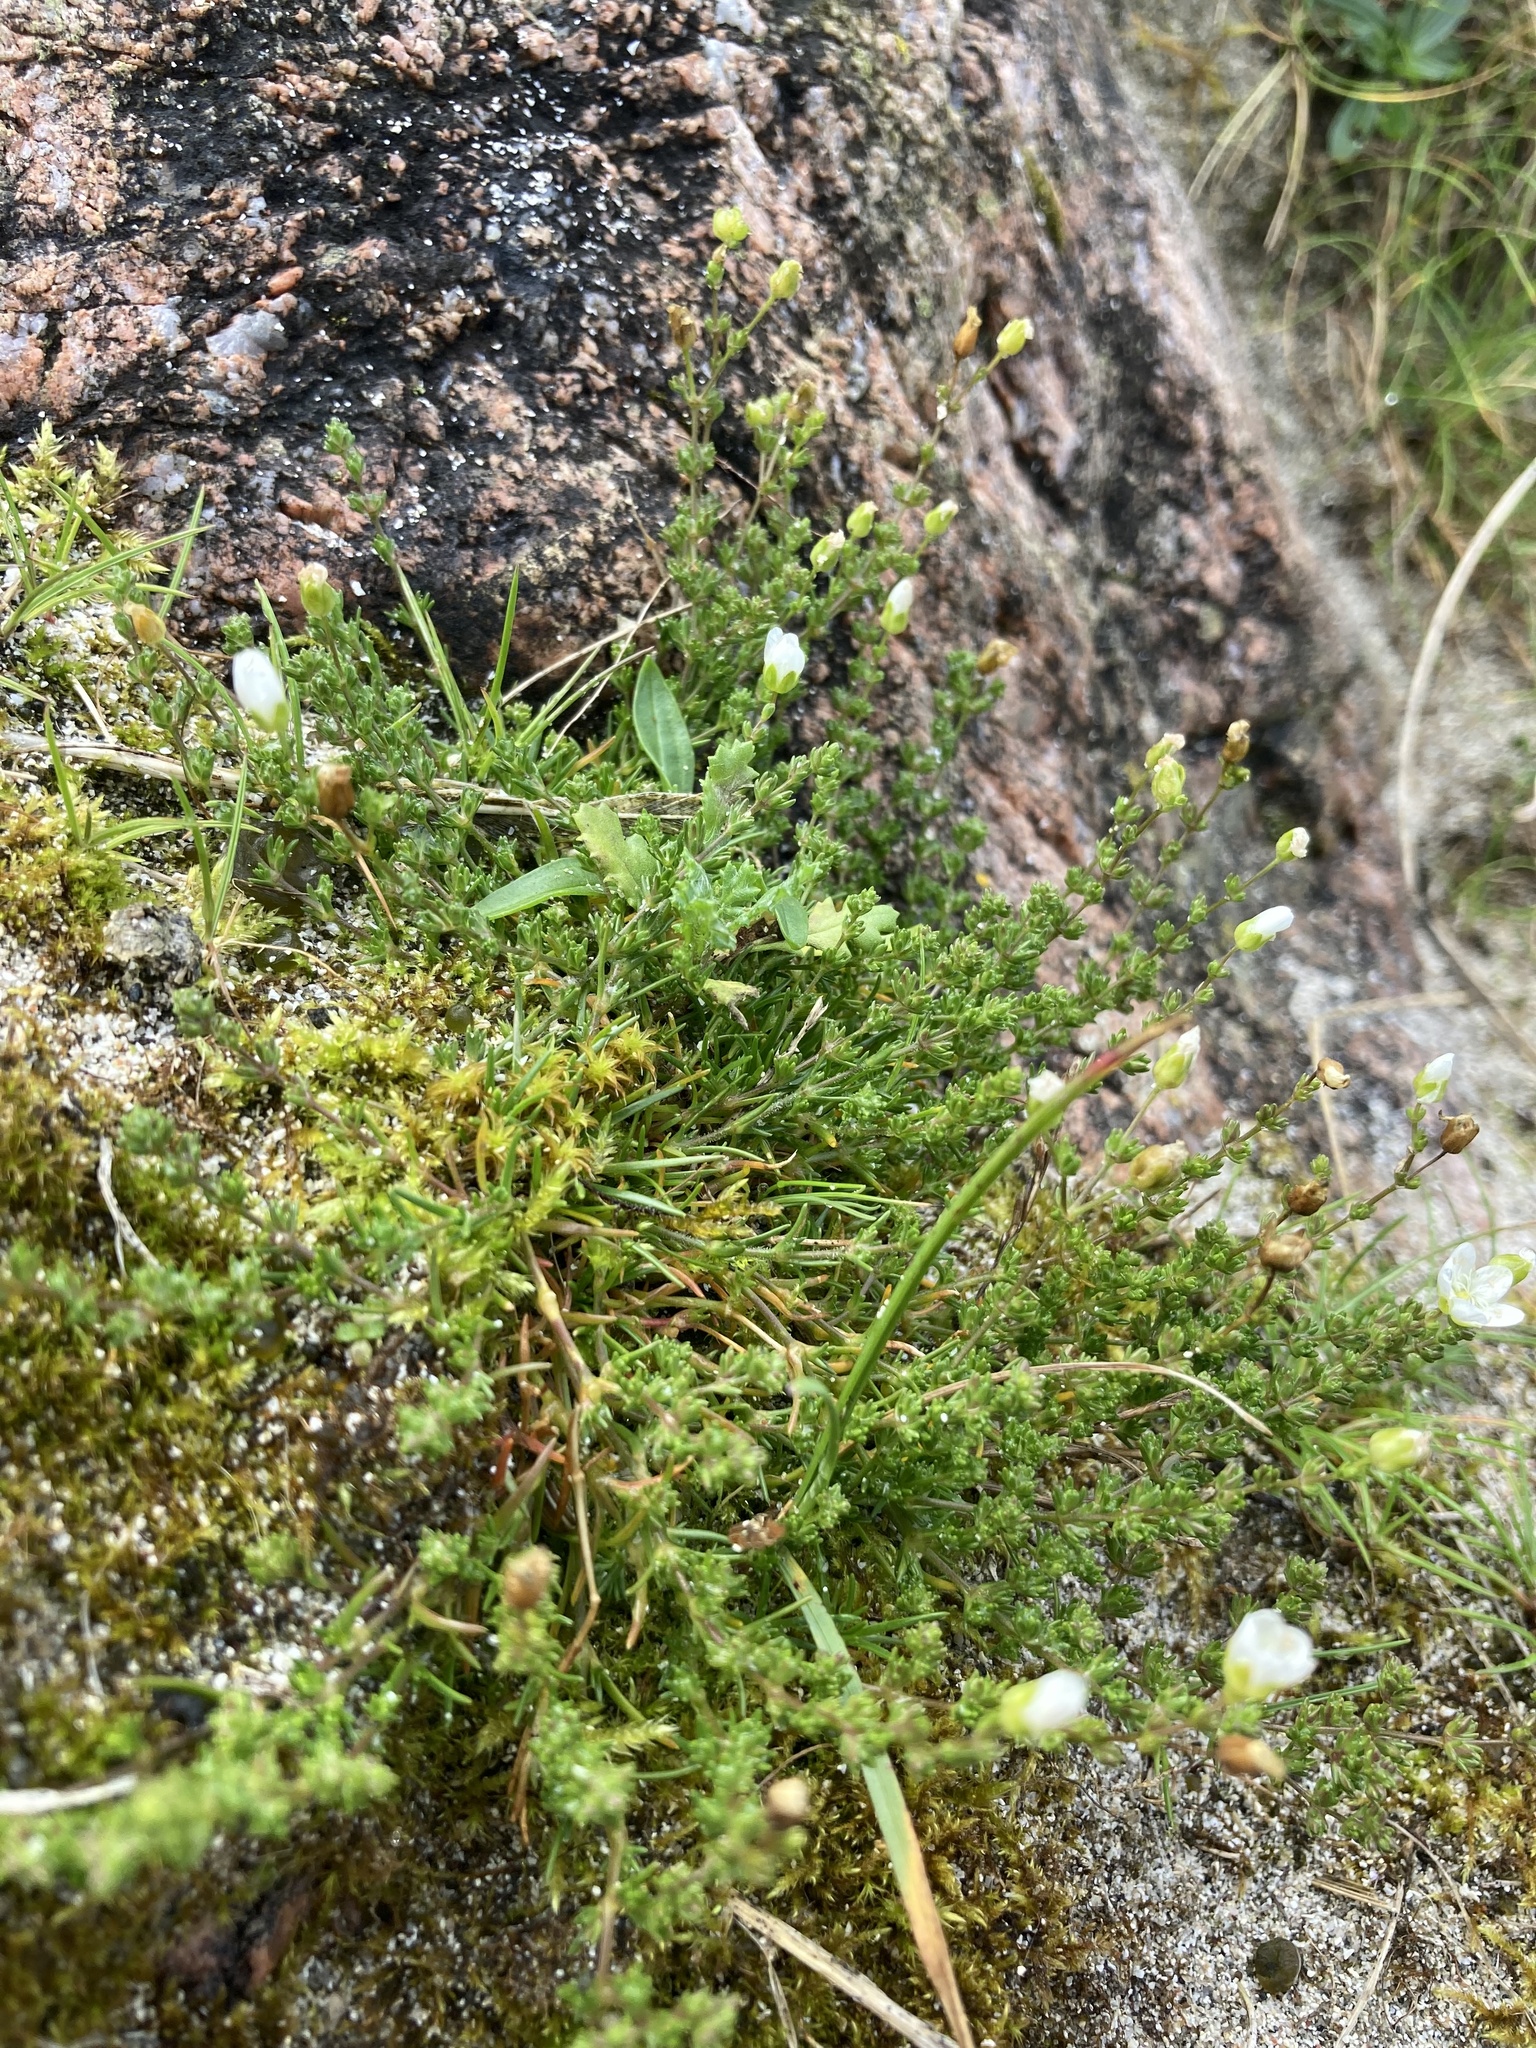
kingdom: Plantae
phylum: Tracheophyta
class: Magnoliopsida
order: Caryophyllales
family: Caryophyllaceae
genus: Sagina
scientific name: Sagina nodosa
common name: Knotted pearlwort
